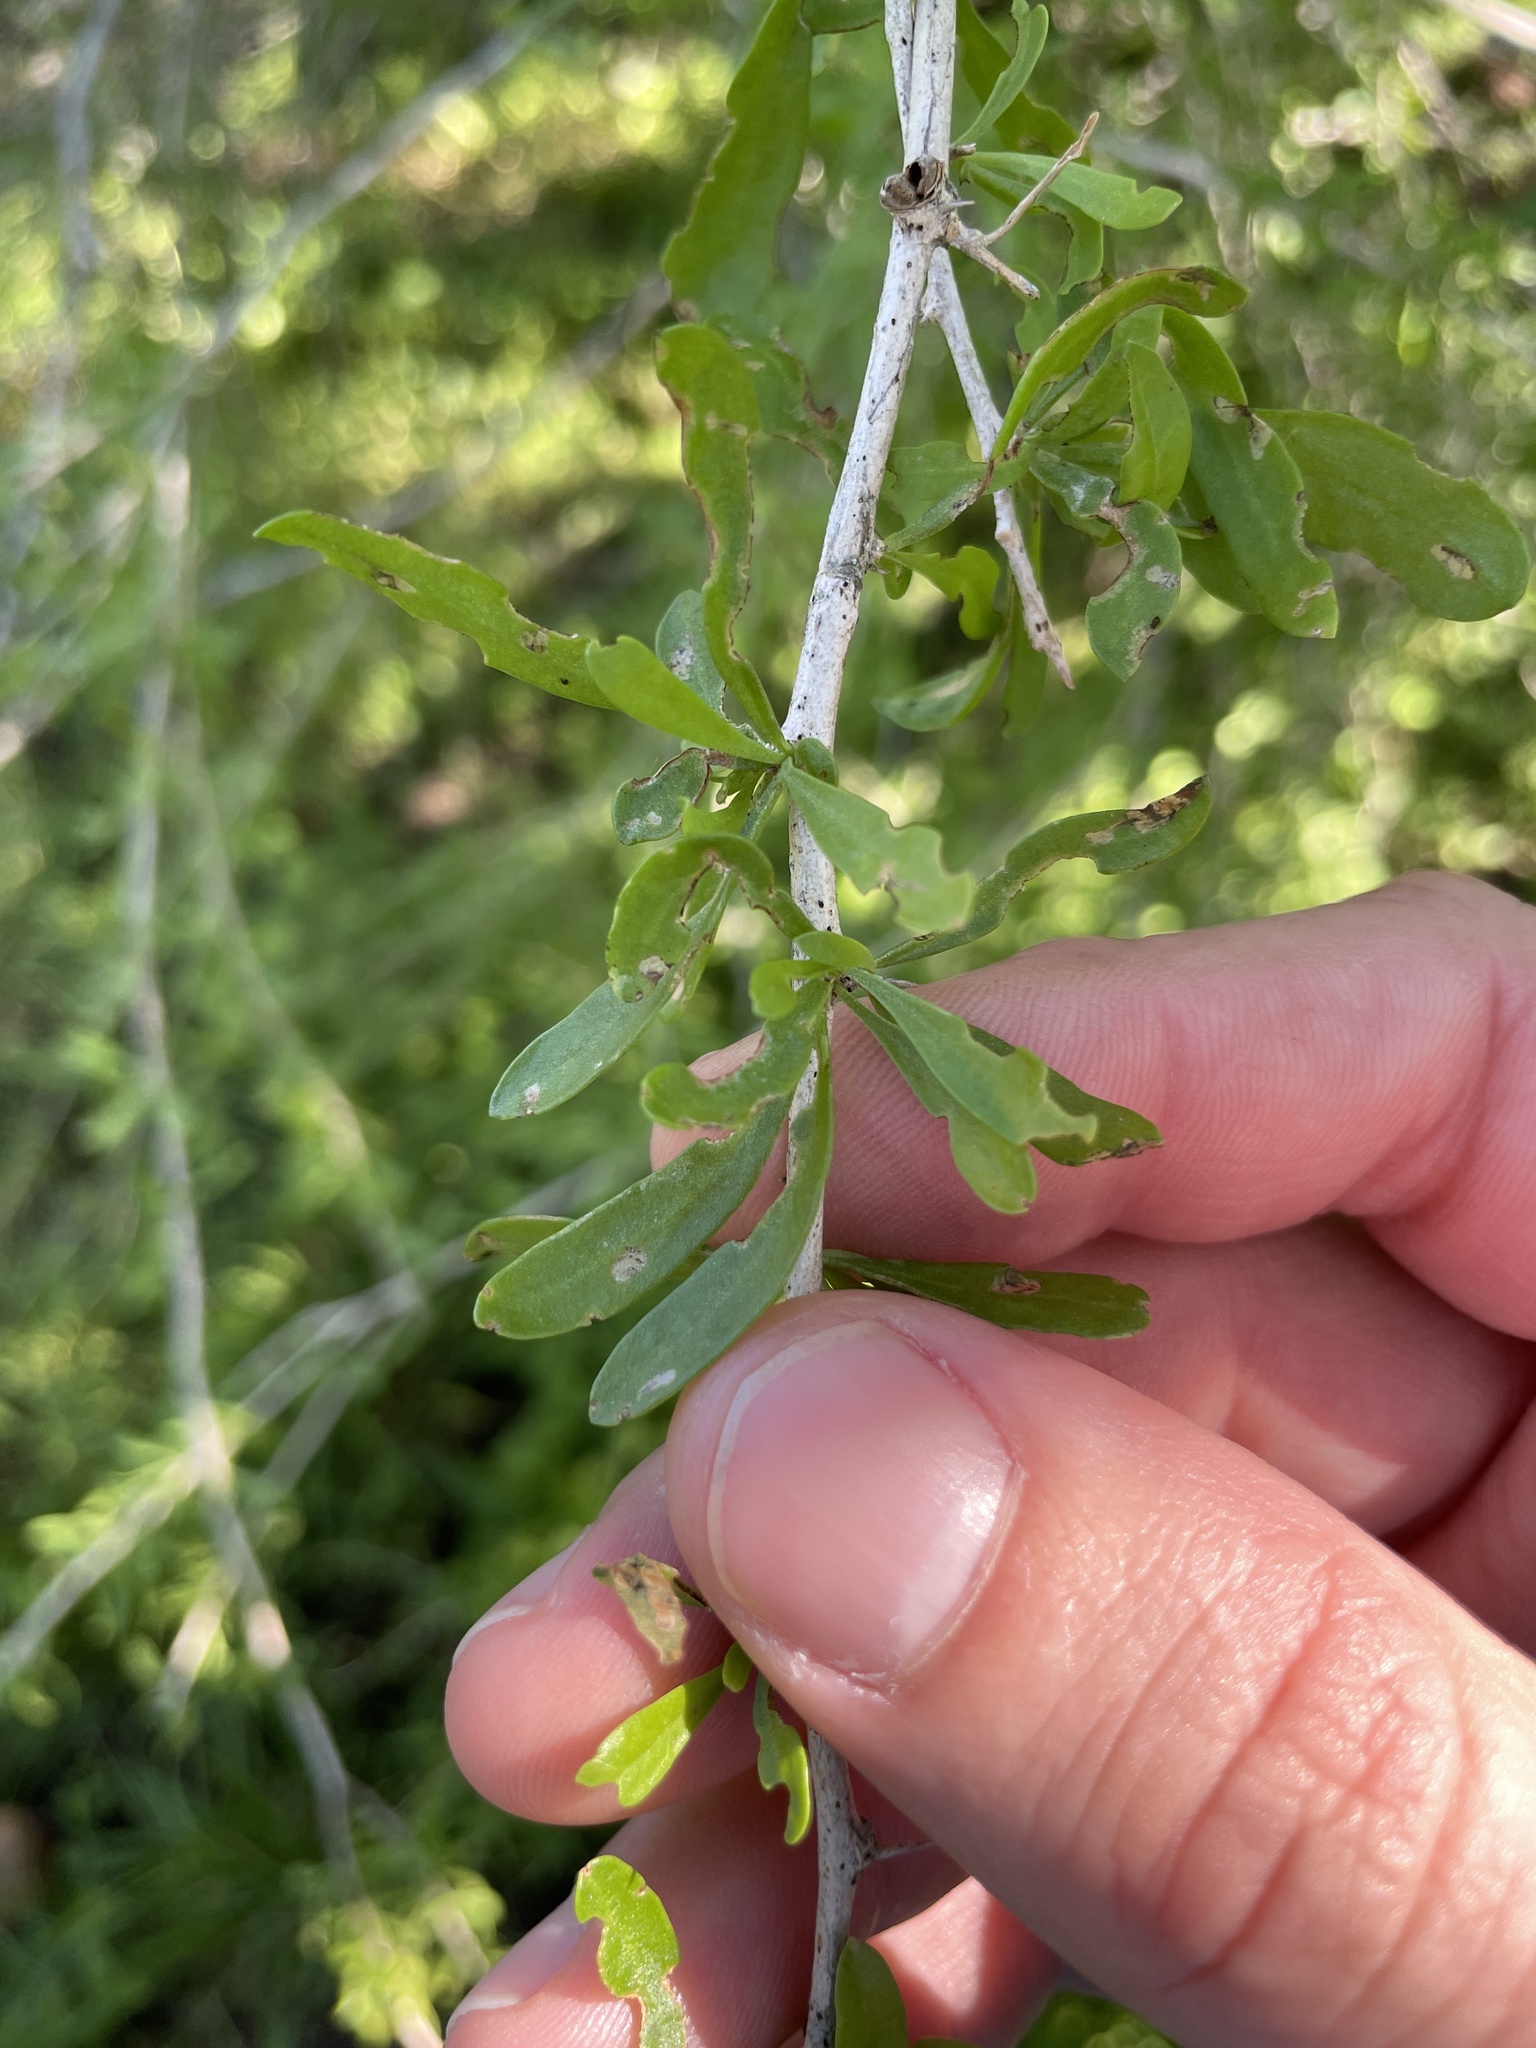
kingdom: Plantae
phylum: Tracheophyta
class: Magnoliopsida
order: Solanales
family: Solanaceae
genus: Lycium
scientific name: Lycium berlandieri
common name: Berlandier wolfberry
